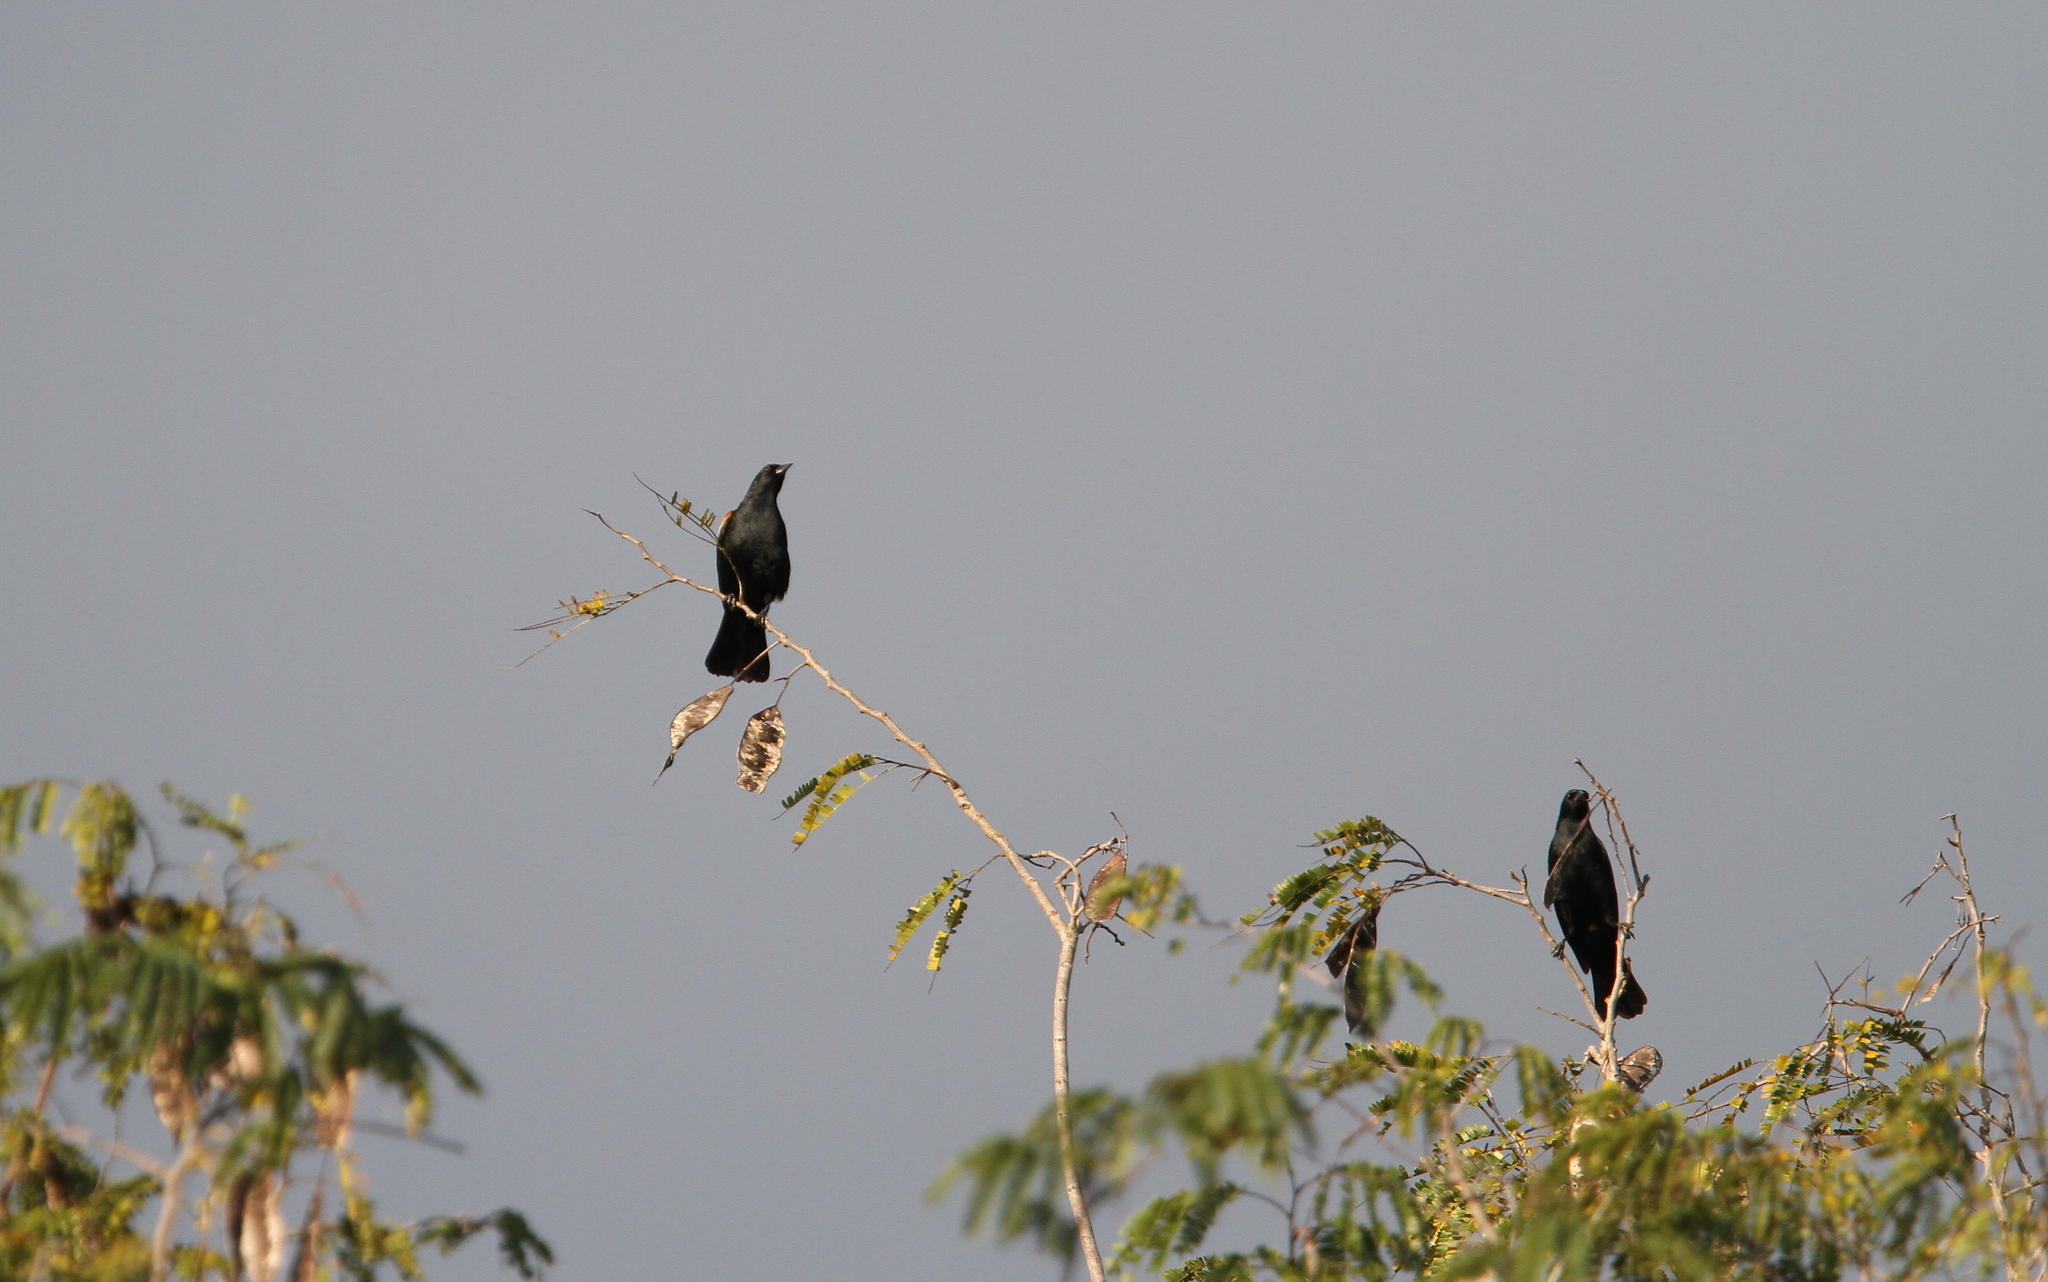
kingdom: Animalia
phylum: Chordata
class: Aves
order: Passeriformes
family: Icteridae
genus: Agelaius
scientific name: Agelaius assimilis
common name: Red-shouldered blackbird
